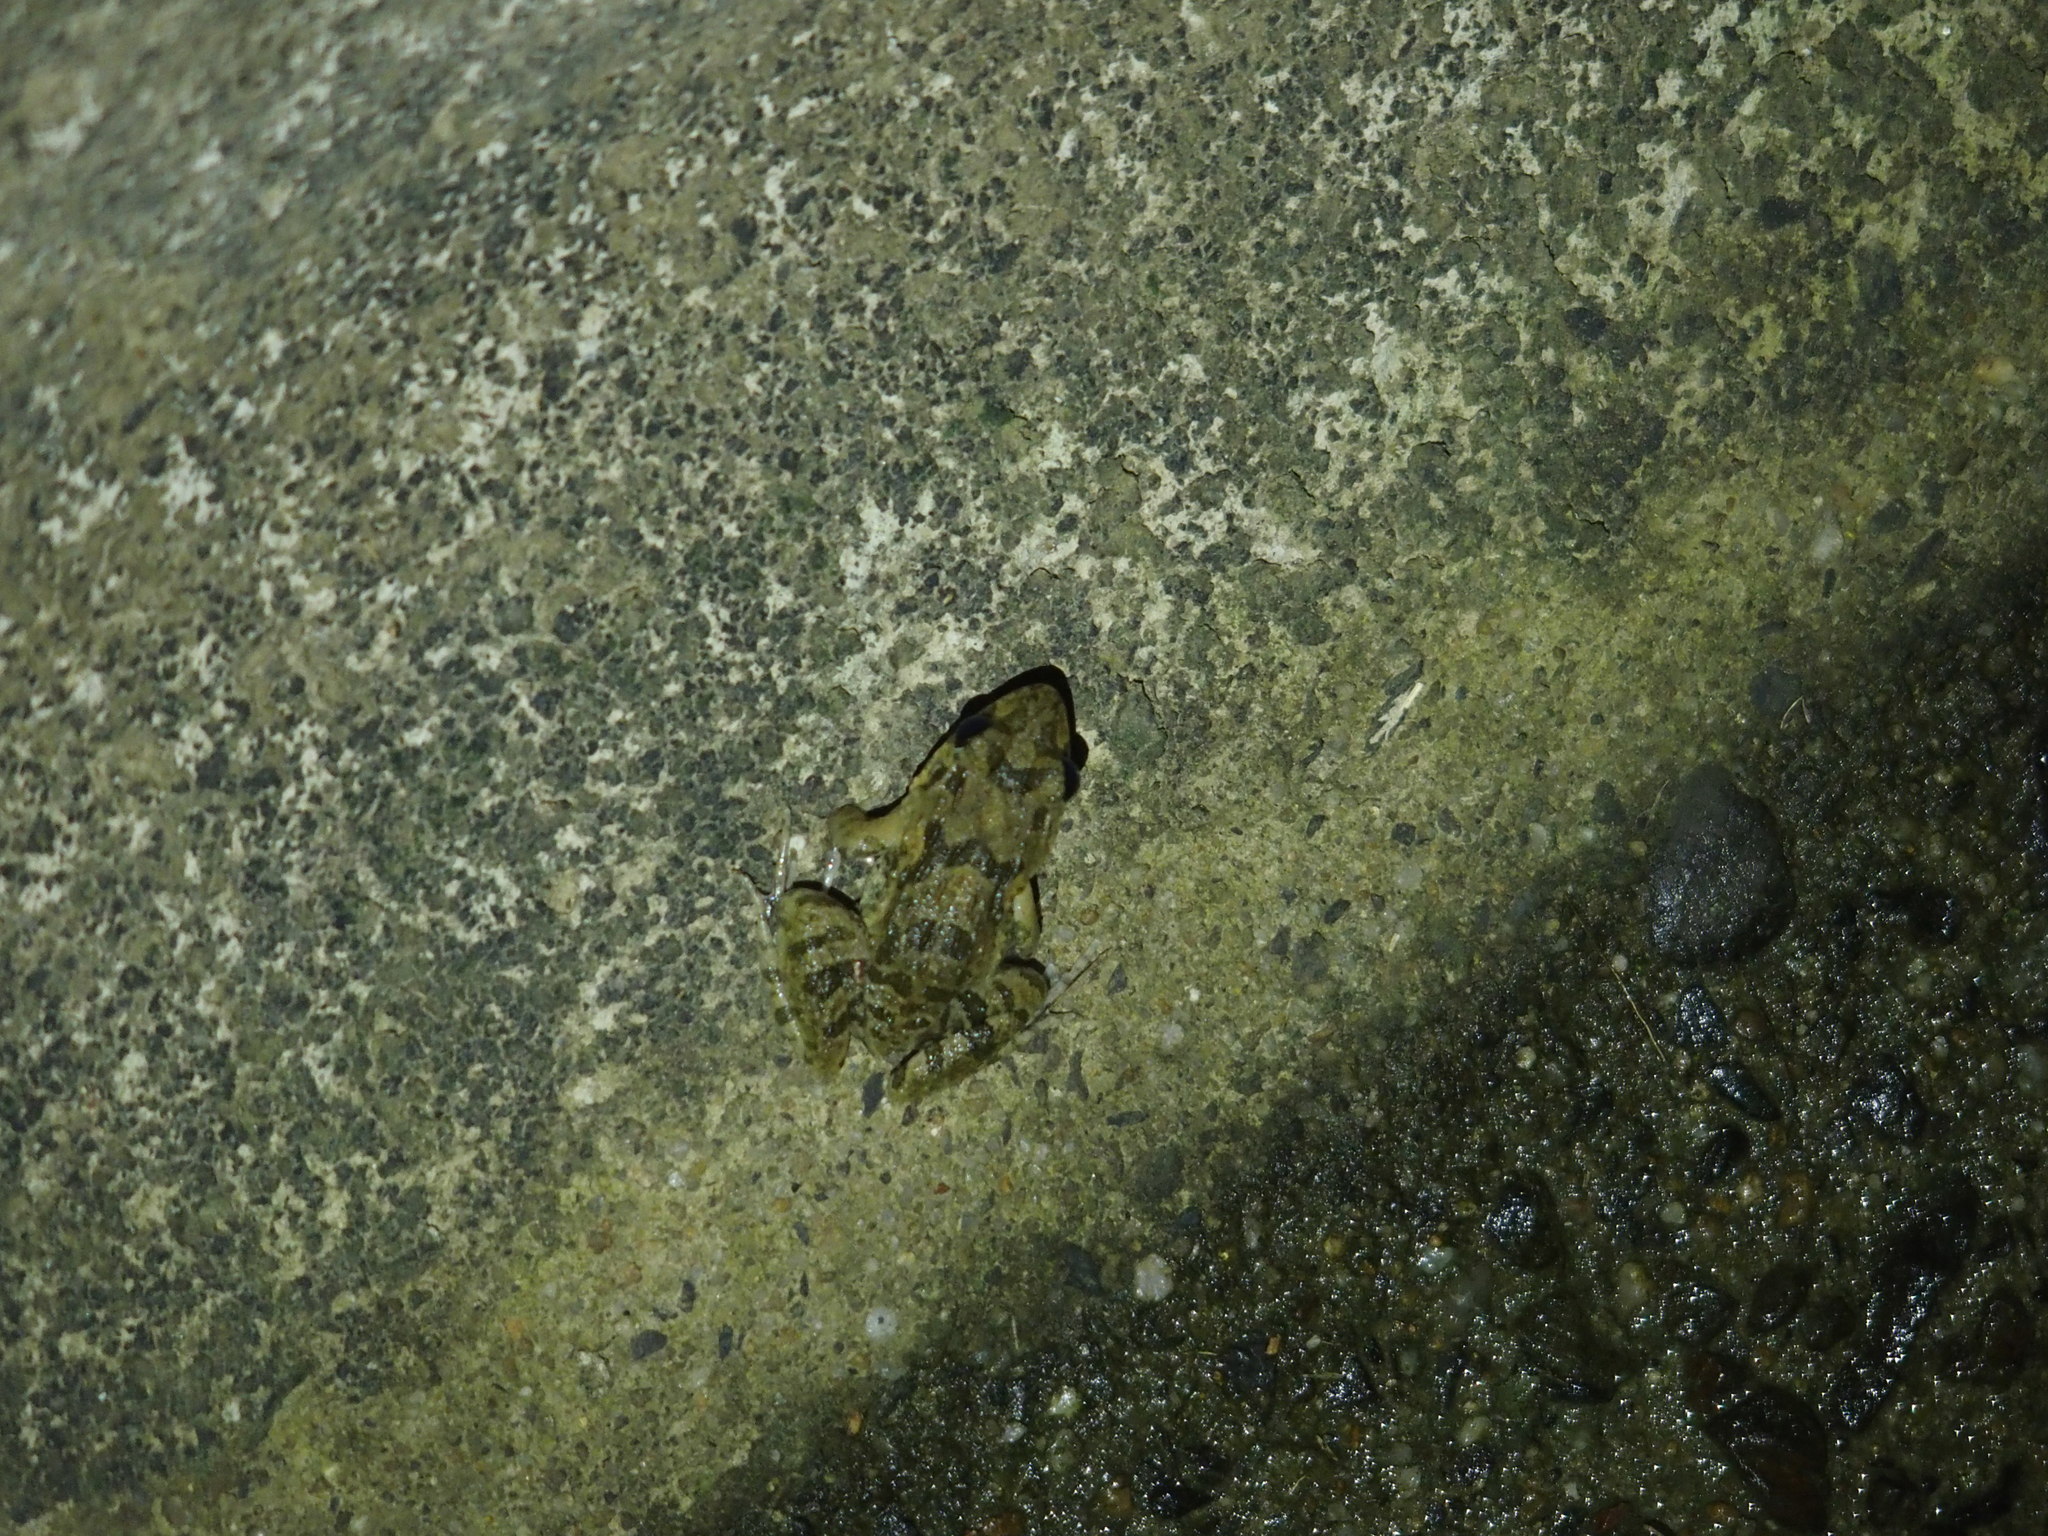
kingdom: Animalia
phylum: Chordata
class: Amphibia
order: Anura
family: Dicroglossidae
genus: Fejervarya
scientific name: Fejervarya limnocharis
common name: Asian grass frog/common pond frog/field frog/grass frog/indian rice frog
